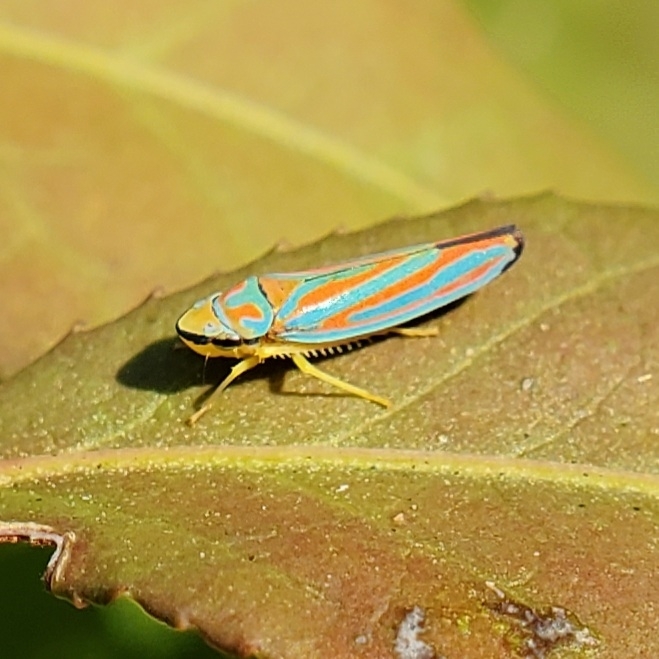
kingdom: Animalia
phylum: Arthropoda
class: Insecta
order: Hemiptera
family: Cicadellidae
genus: Graphocephala
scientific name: Graphocephala coccinea
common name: Candy-striped leafhopper
